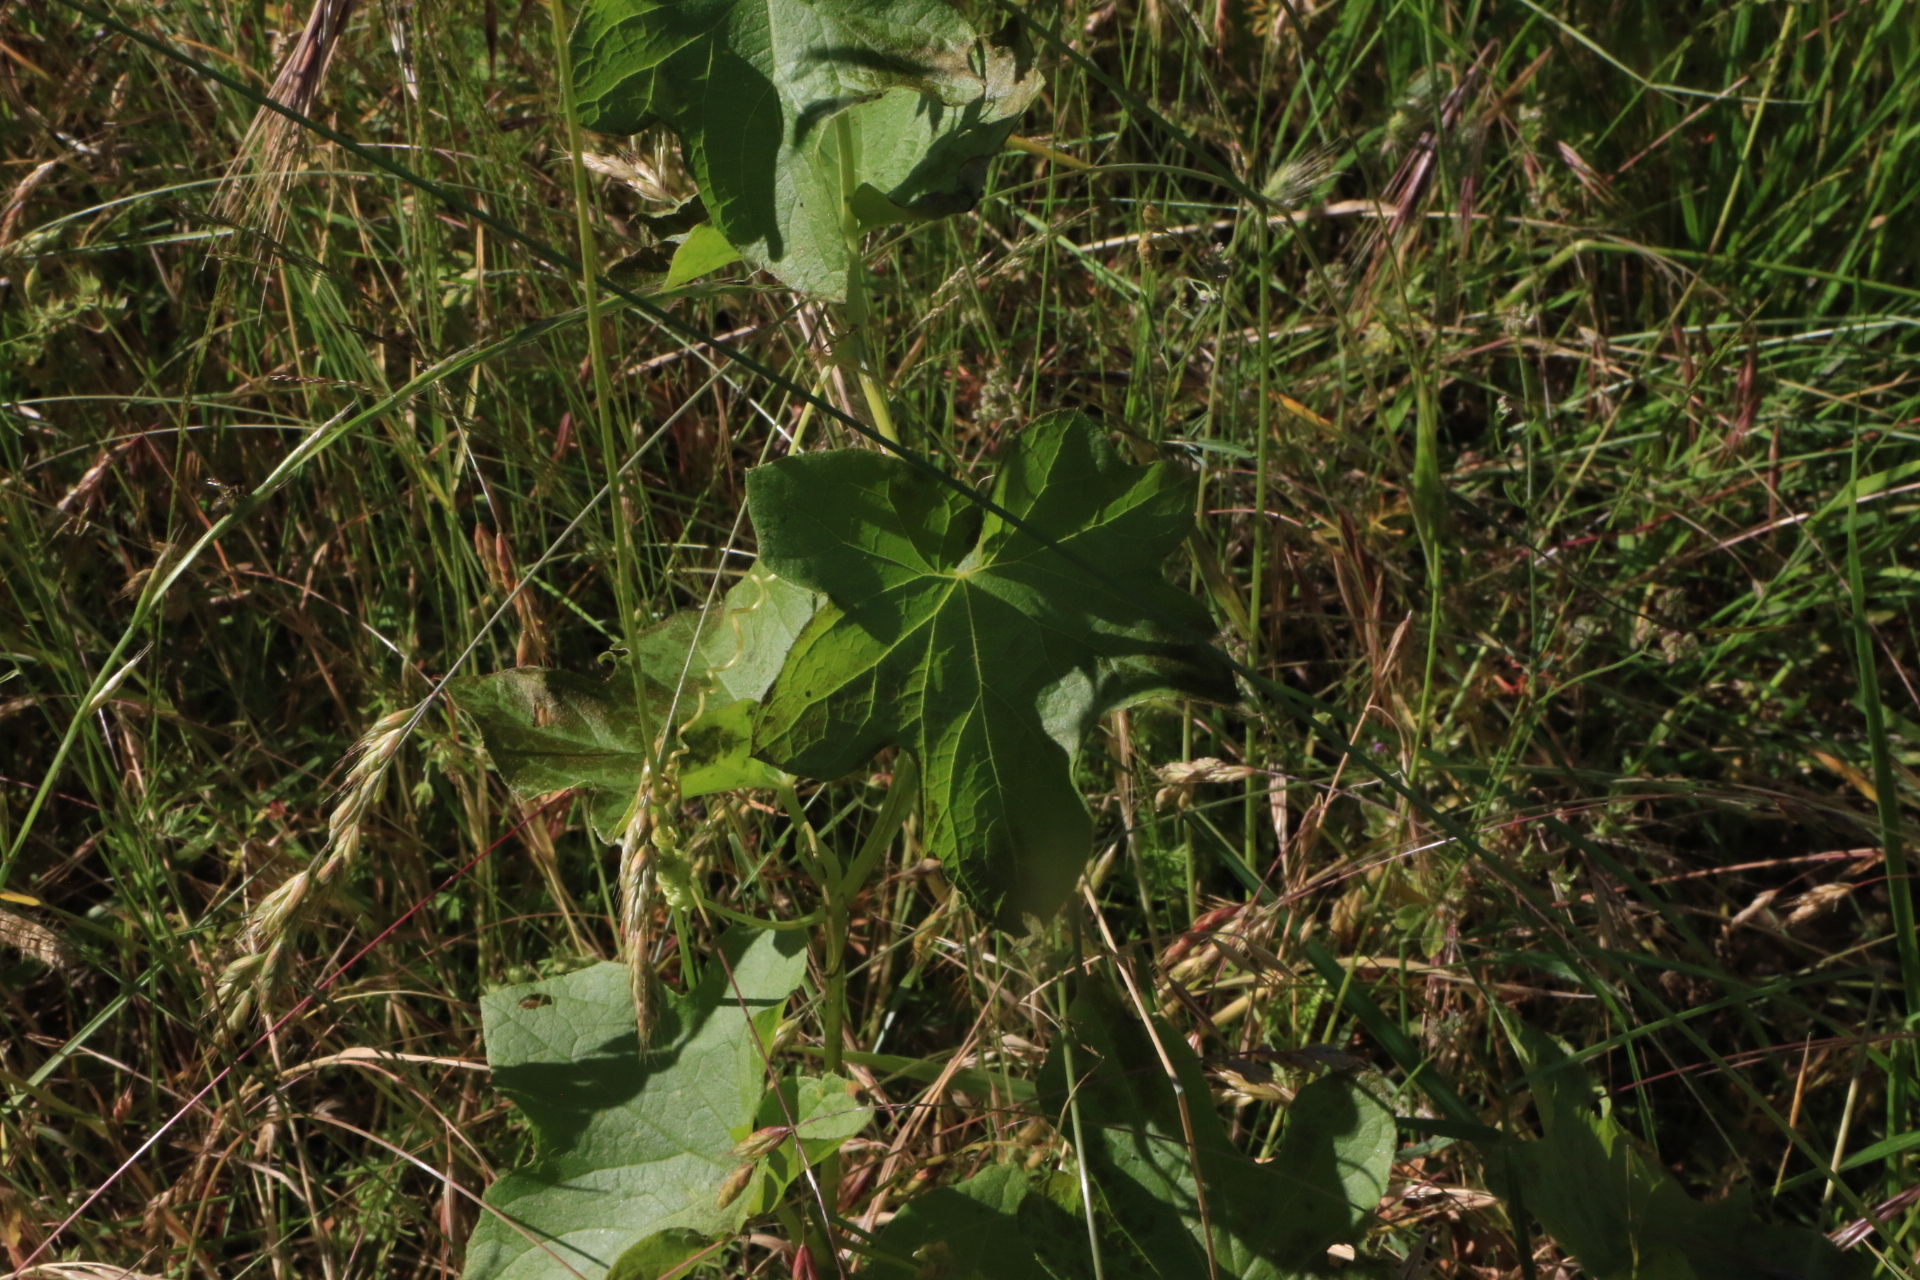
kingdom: Plantae
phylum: Tracheophyta
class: Magnoliopsida
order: Cucurbitales
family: Cucurbitaceae
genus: Marah
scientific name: Marah oregana
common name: Coastal manroot
